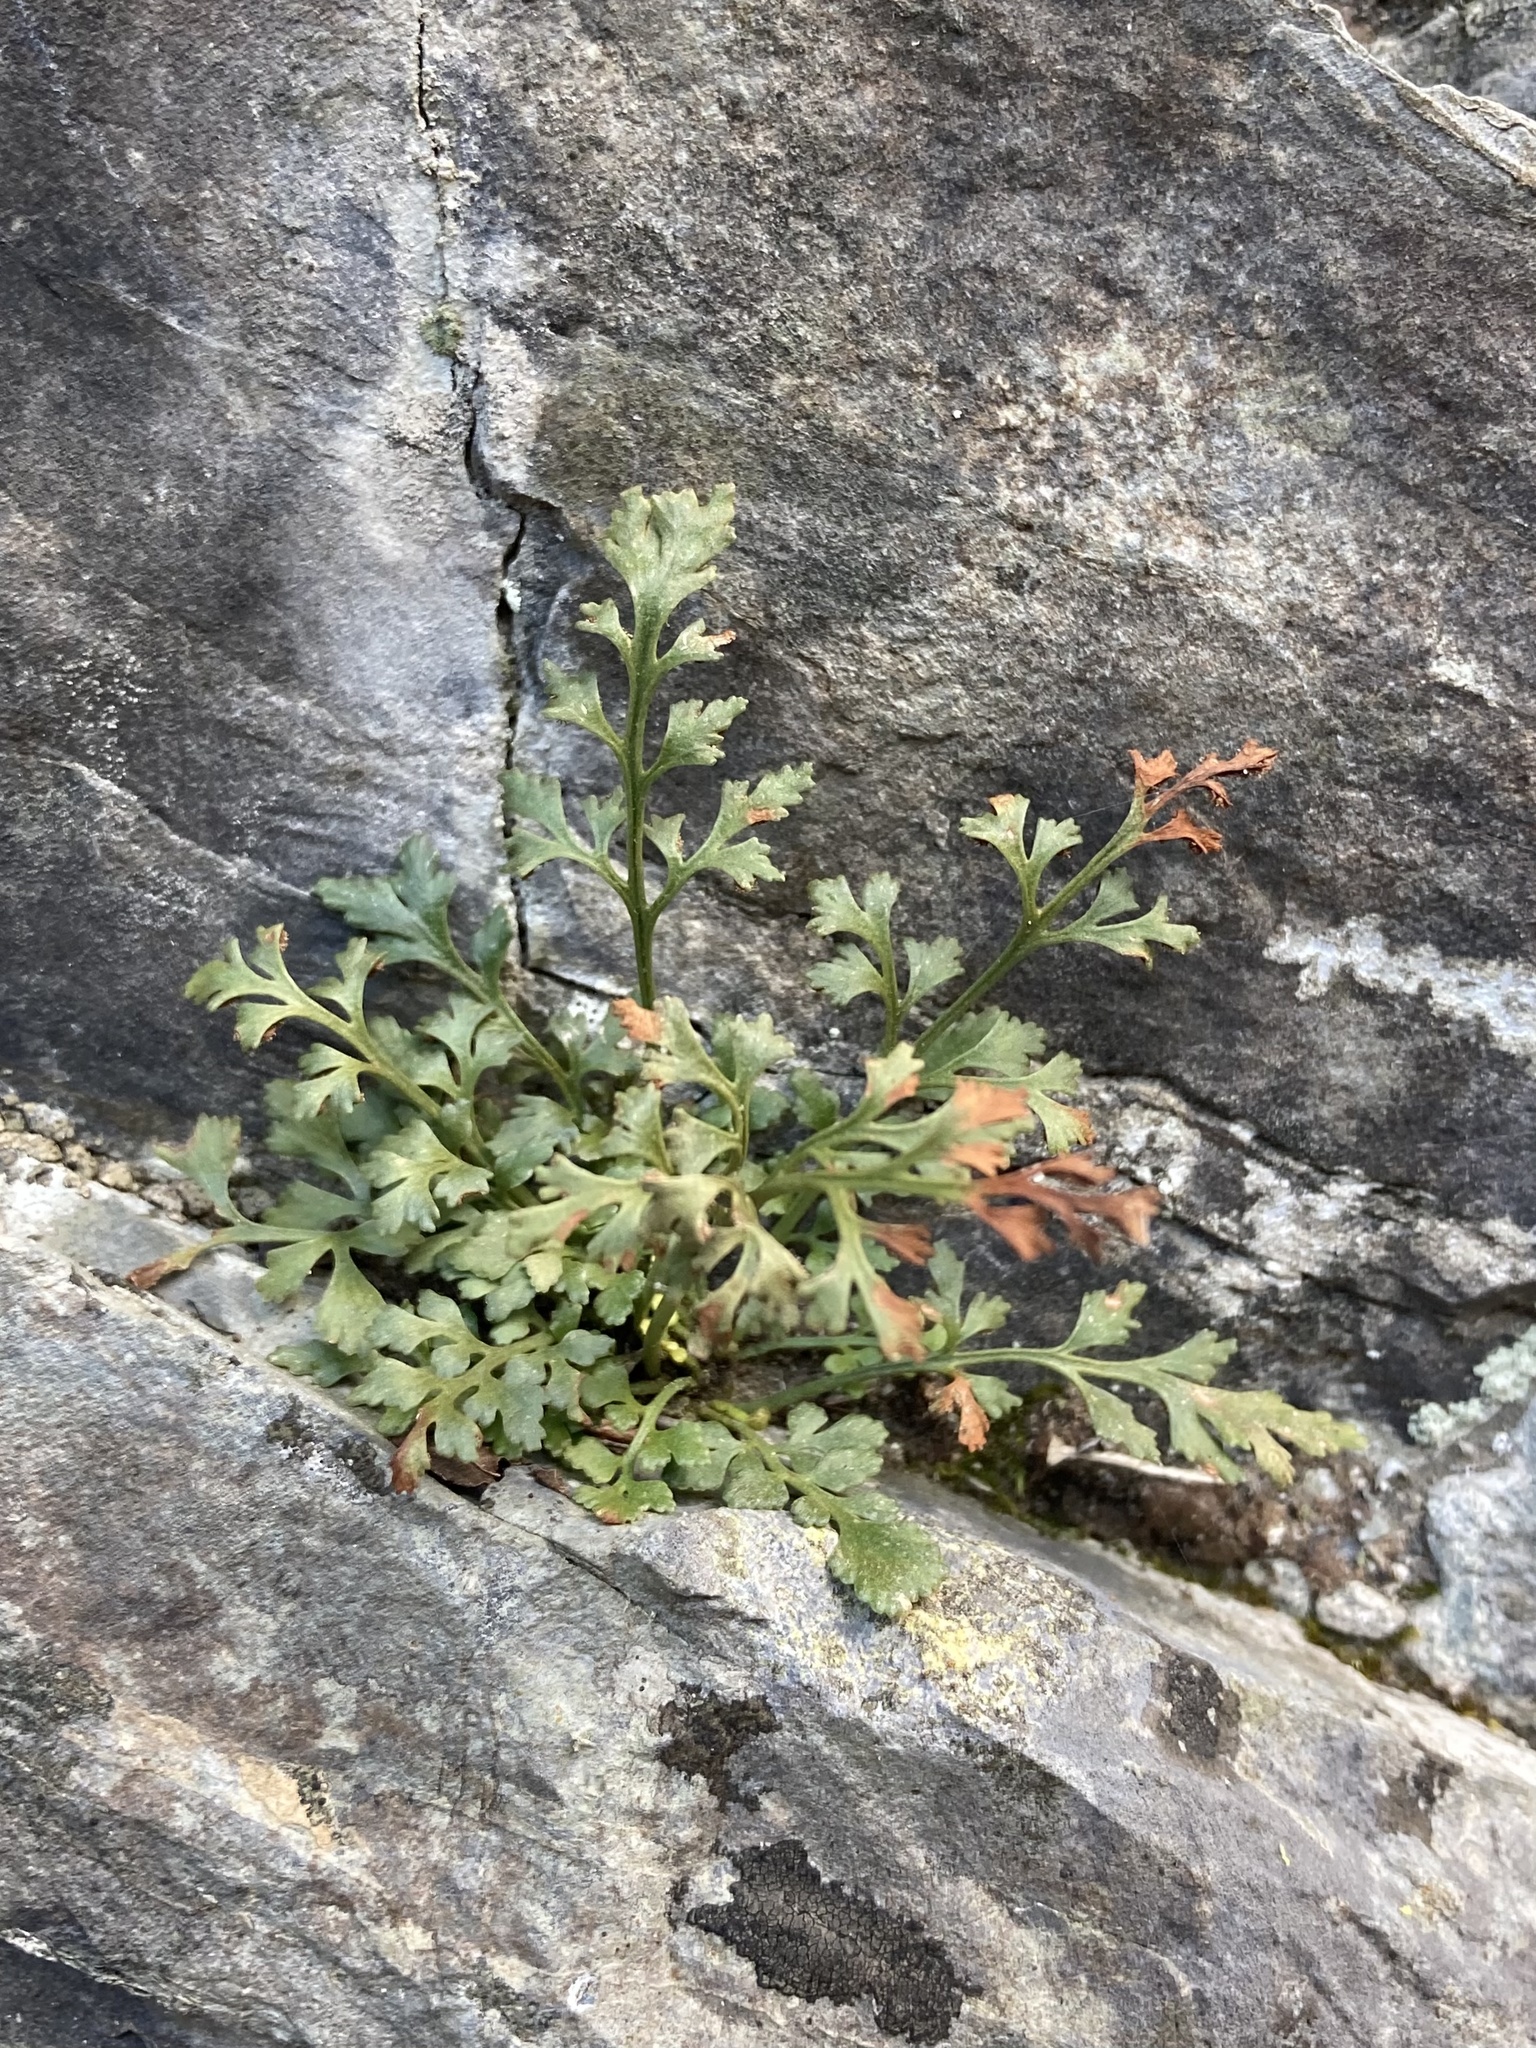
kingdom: Plantae
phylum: Tracheophyta
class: Polypodiopsida
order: Polypodiales
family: Aspleniaceae
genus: Asplenium
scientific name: Asplenium ruta-muraria
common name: Wall-rue
